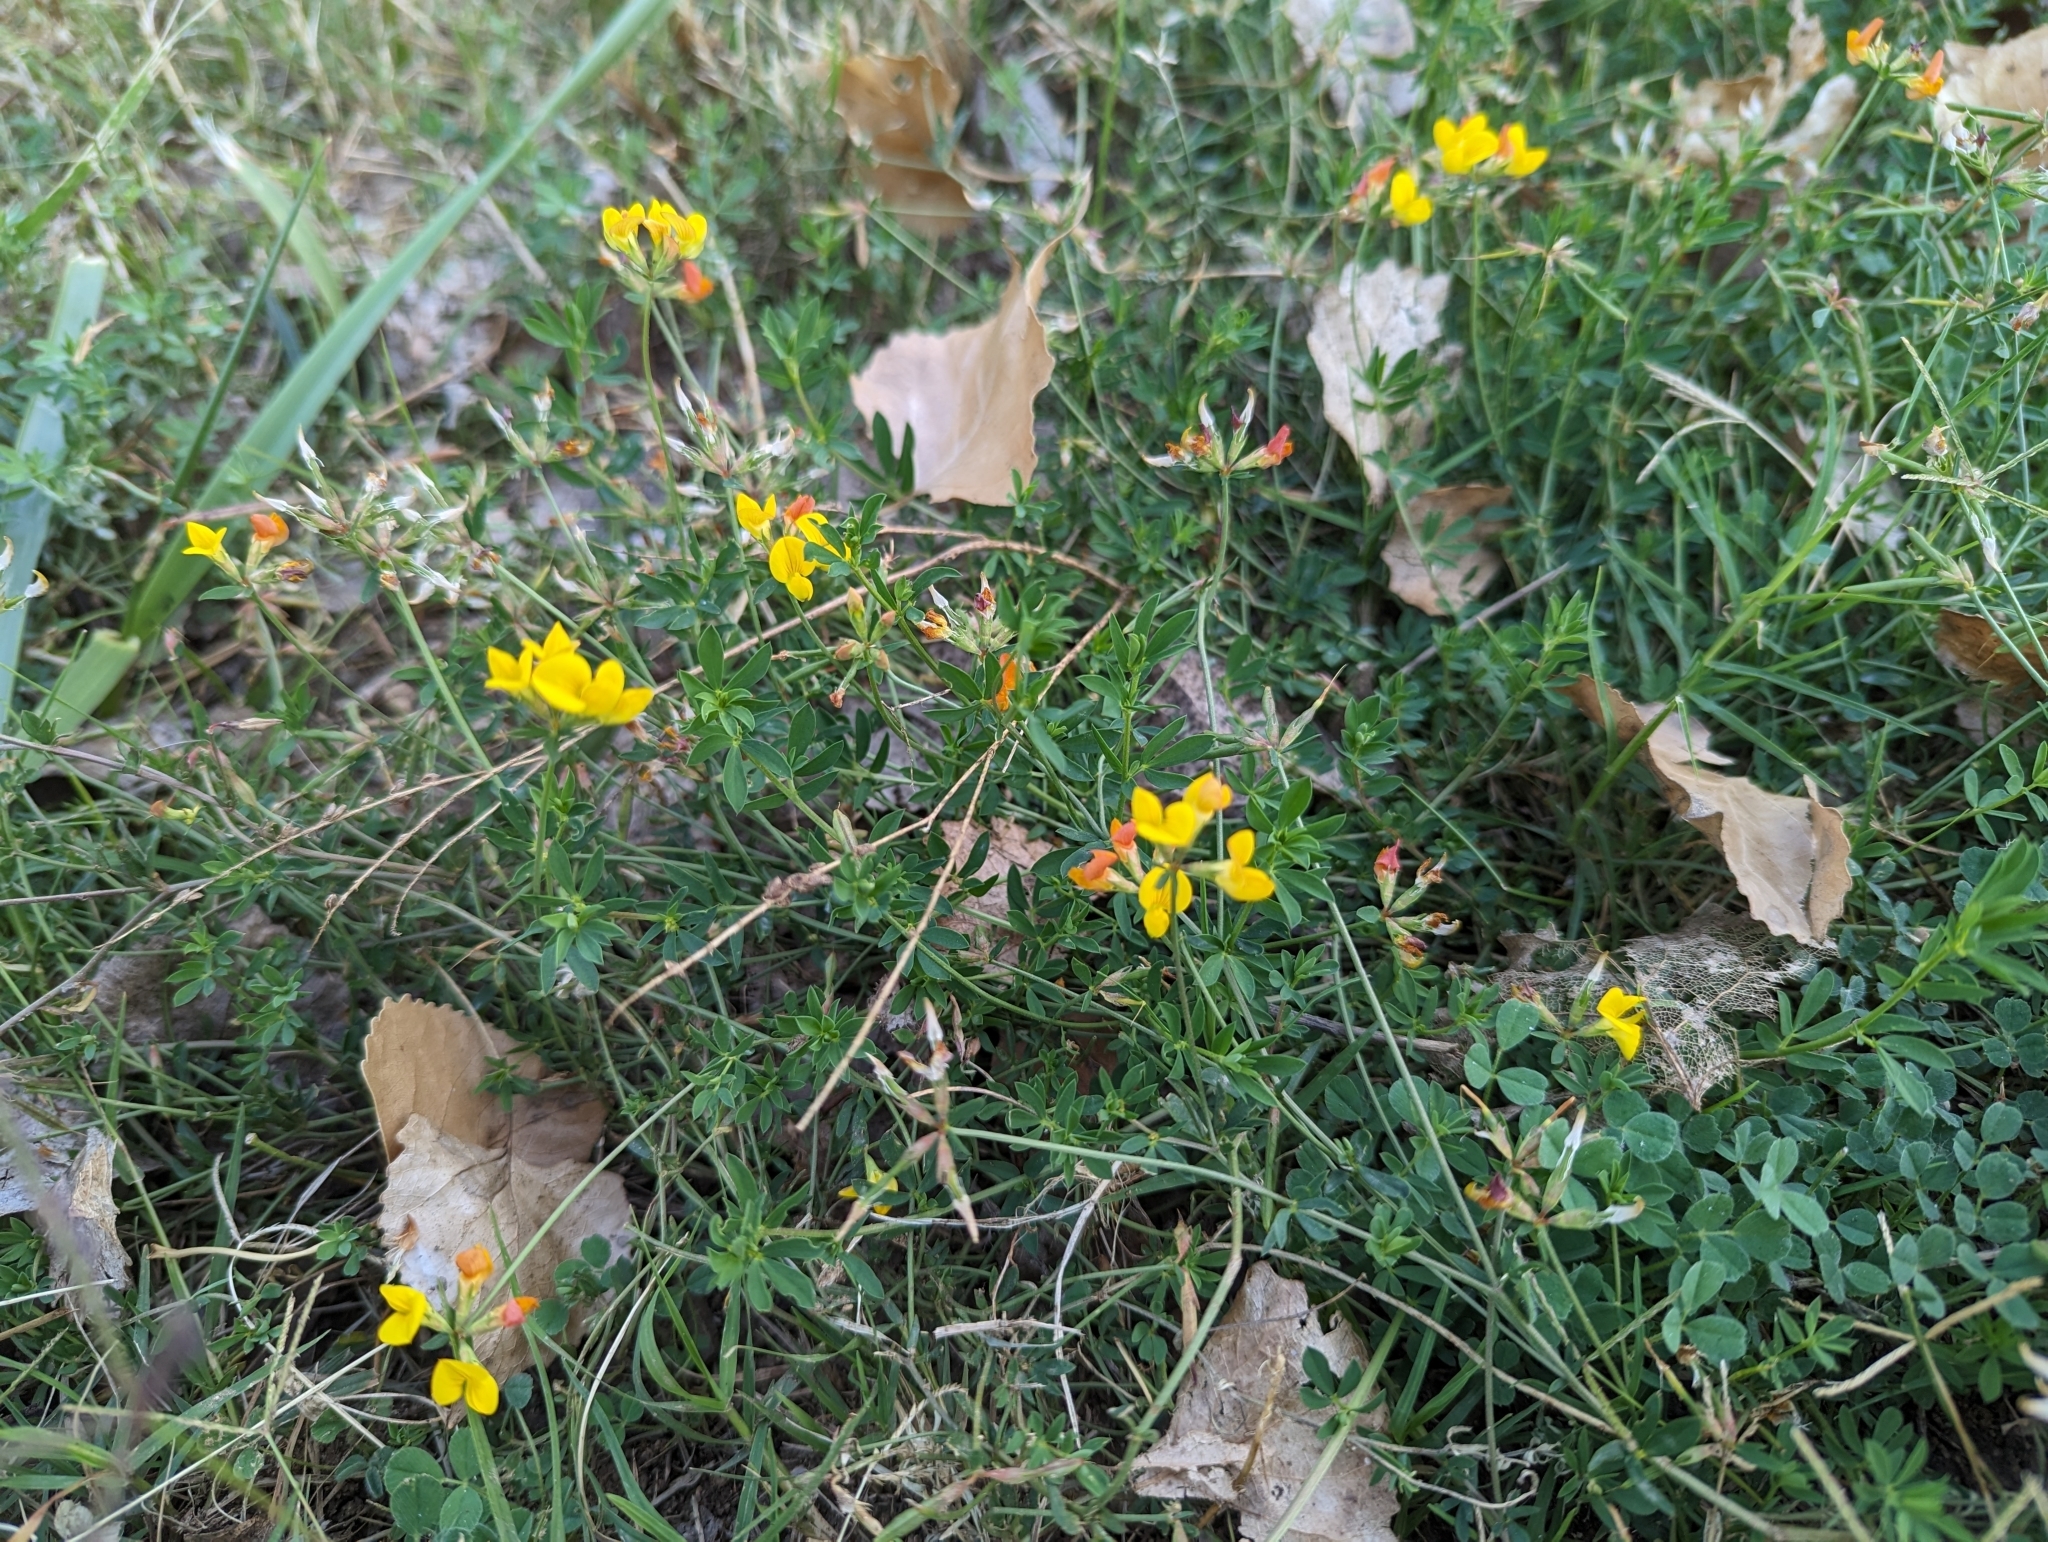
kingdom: Plantae
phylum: Tracheophyta
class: Magnoliopsida
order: Fabales
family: Fabaceae
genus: Lotus
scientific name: Lotus corniculatus
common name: Common bird's-foot-trefoil
